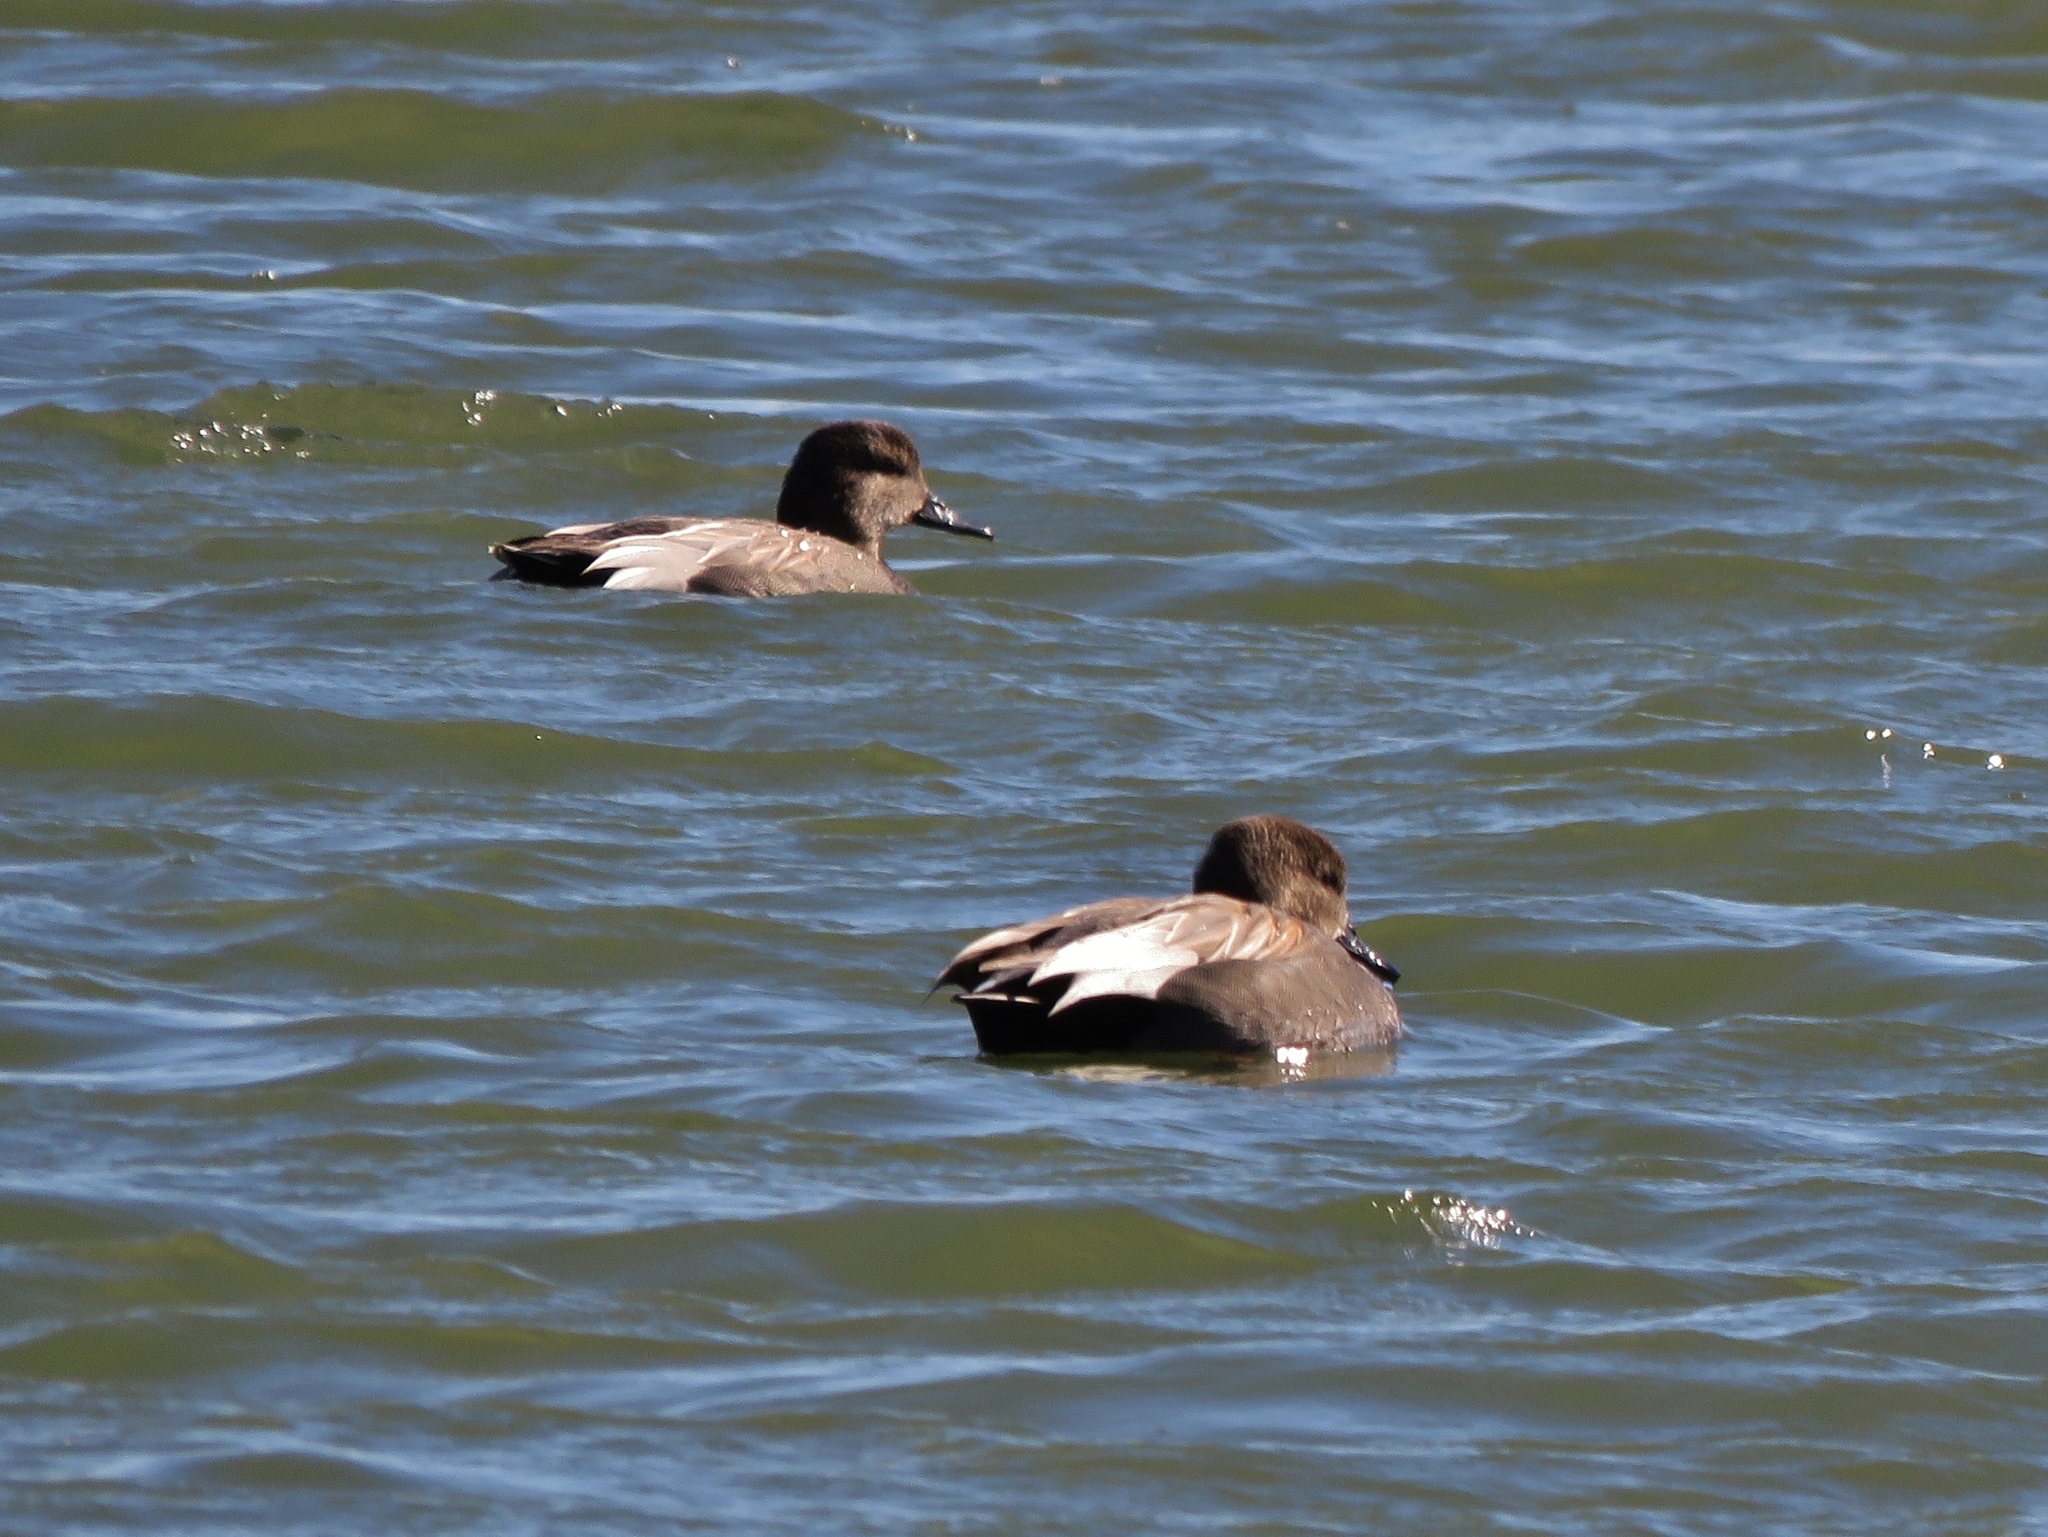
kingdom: Animalia
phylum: Chordata
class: Aves
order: Anseriformes
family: Anatidae
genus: Mareca
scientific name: Mareca strepera
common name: Gadwall
